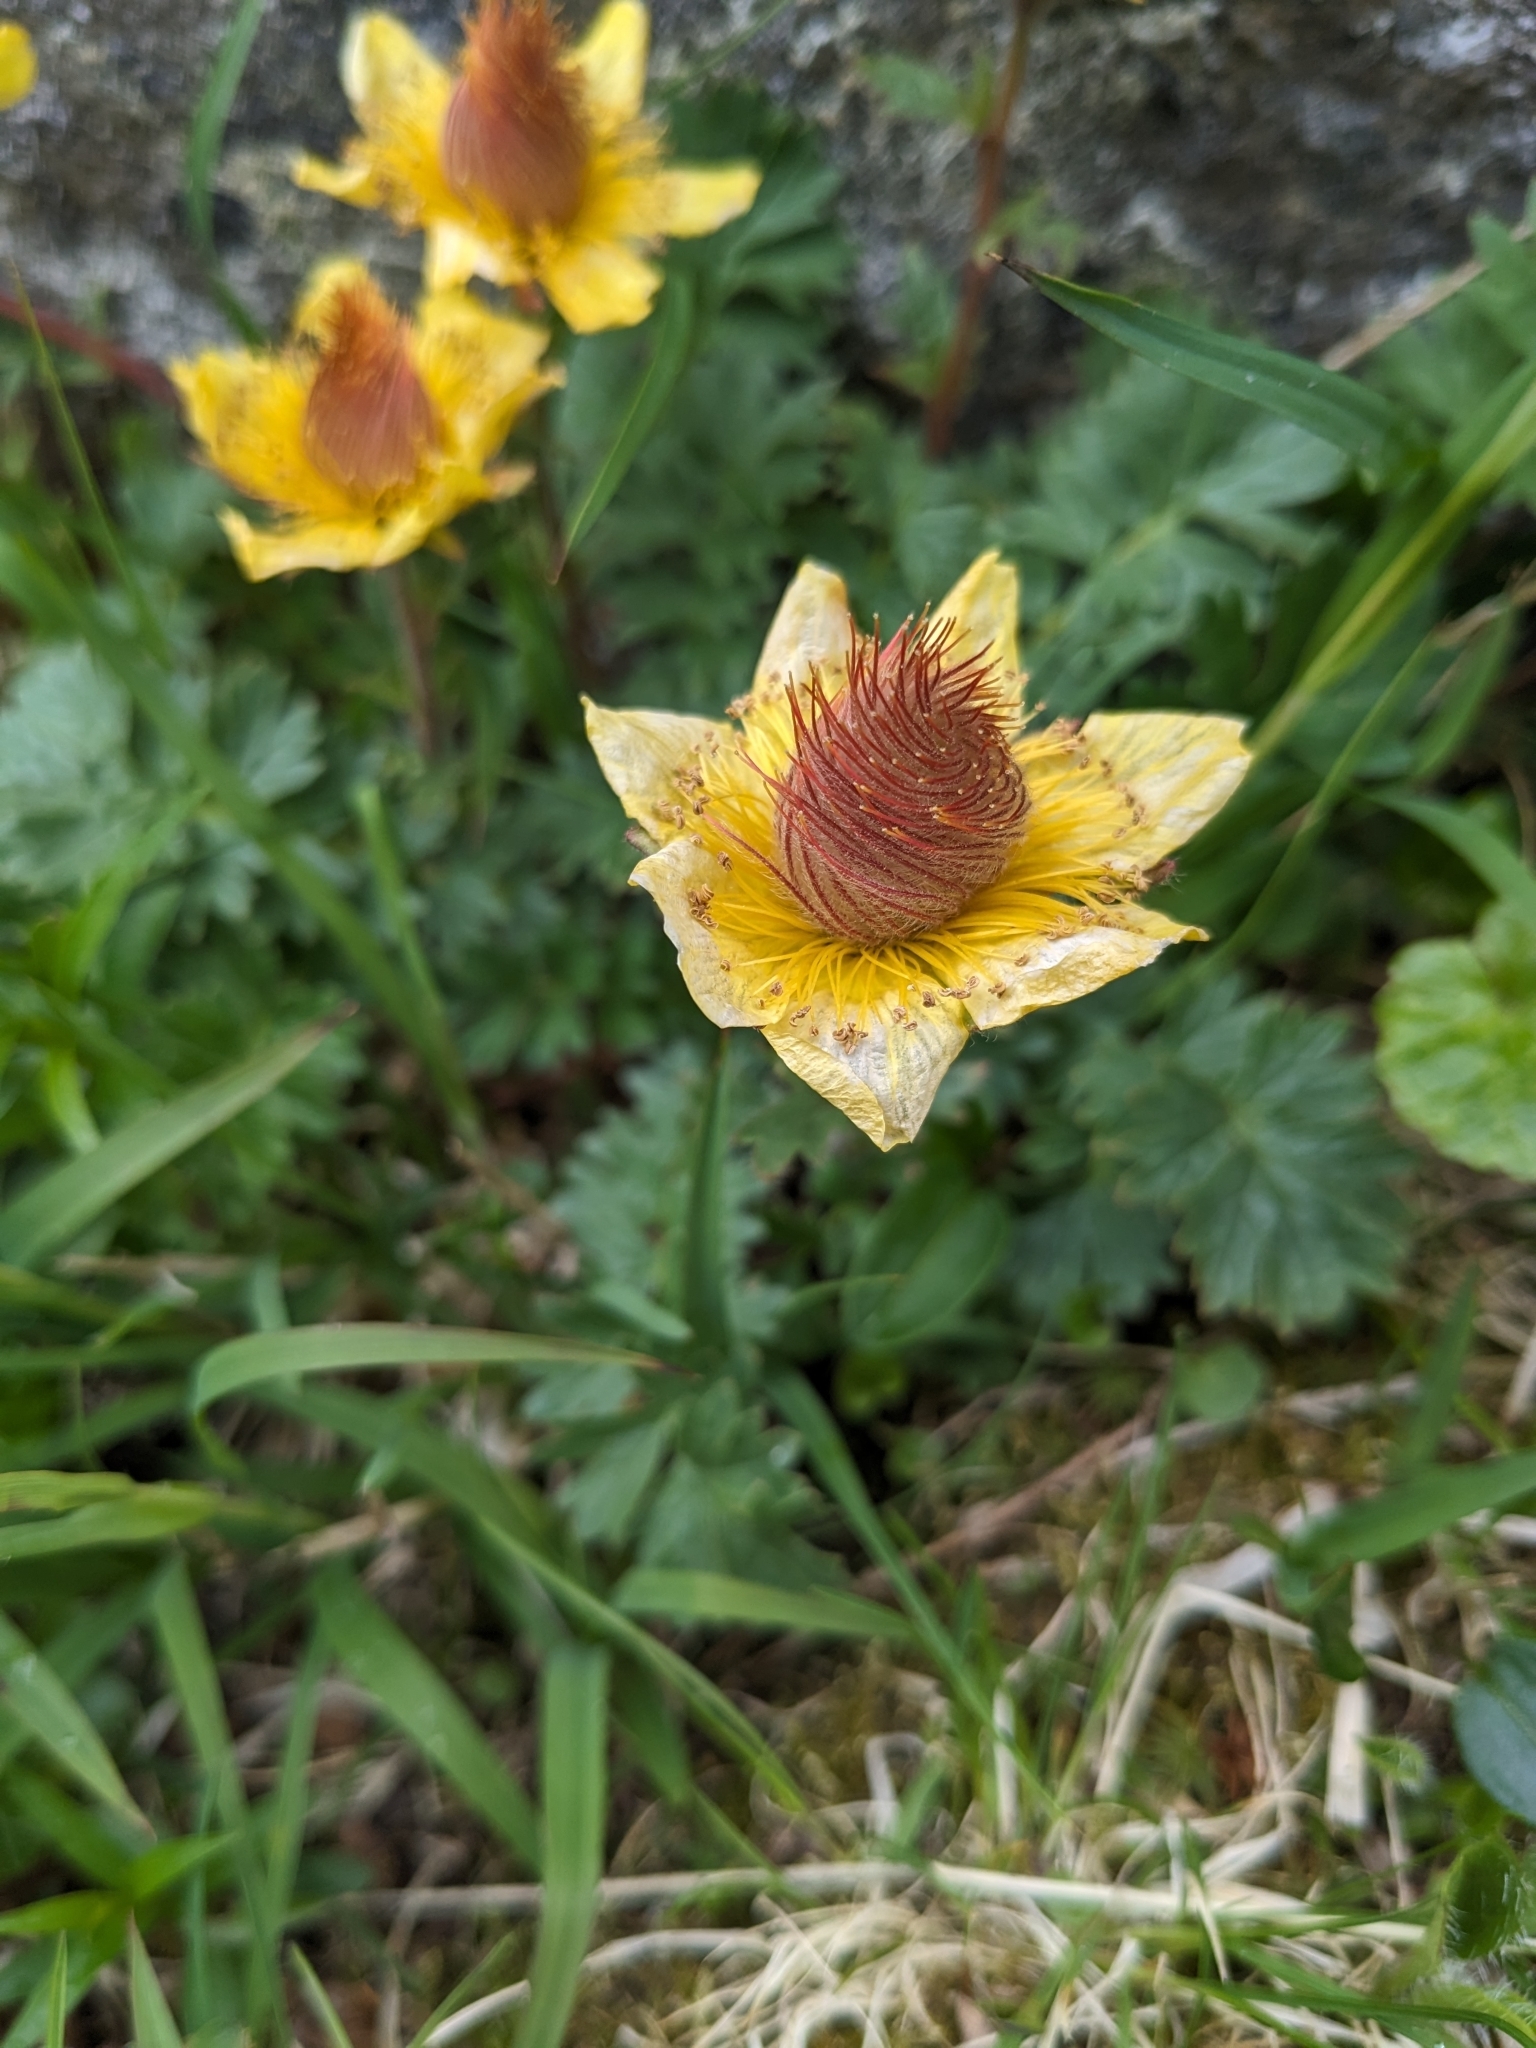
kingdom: Plantae
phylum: Tracheophyta
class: Magnoliopsida
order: Rosales
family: Rosaceae
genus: Geum
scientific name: Geum reptans
